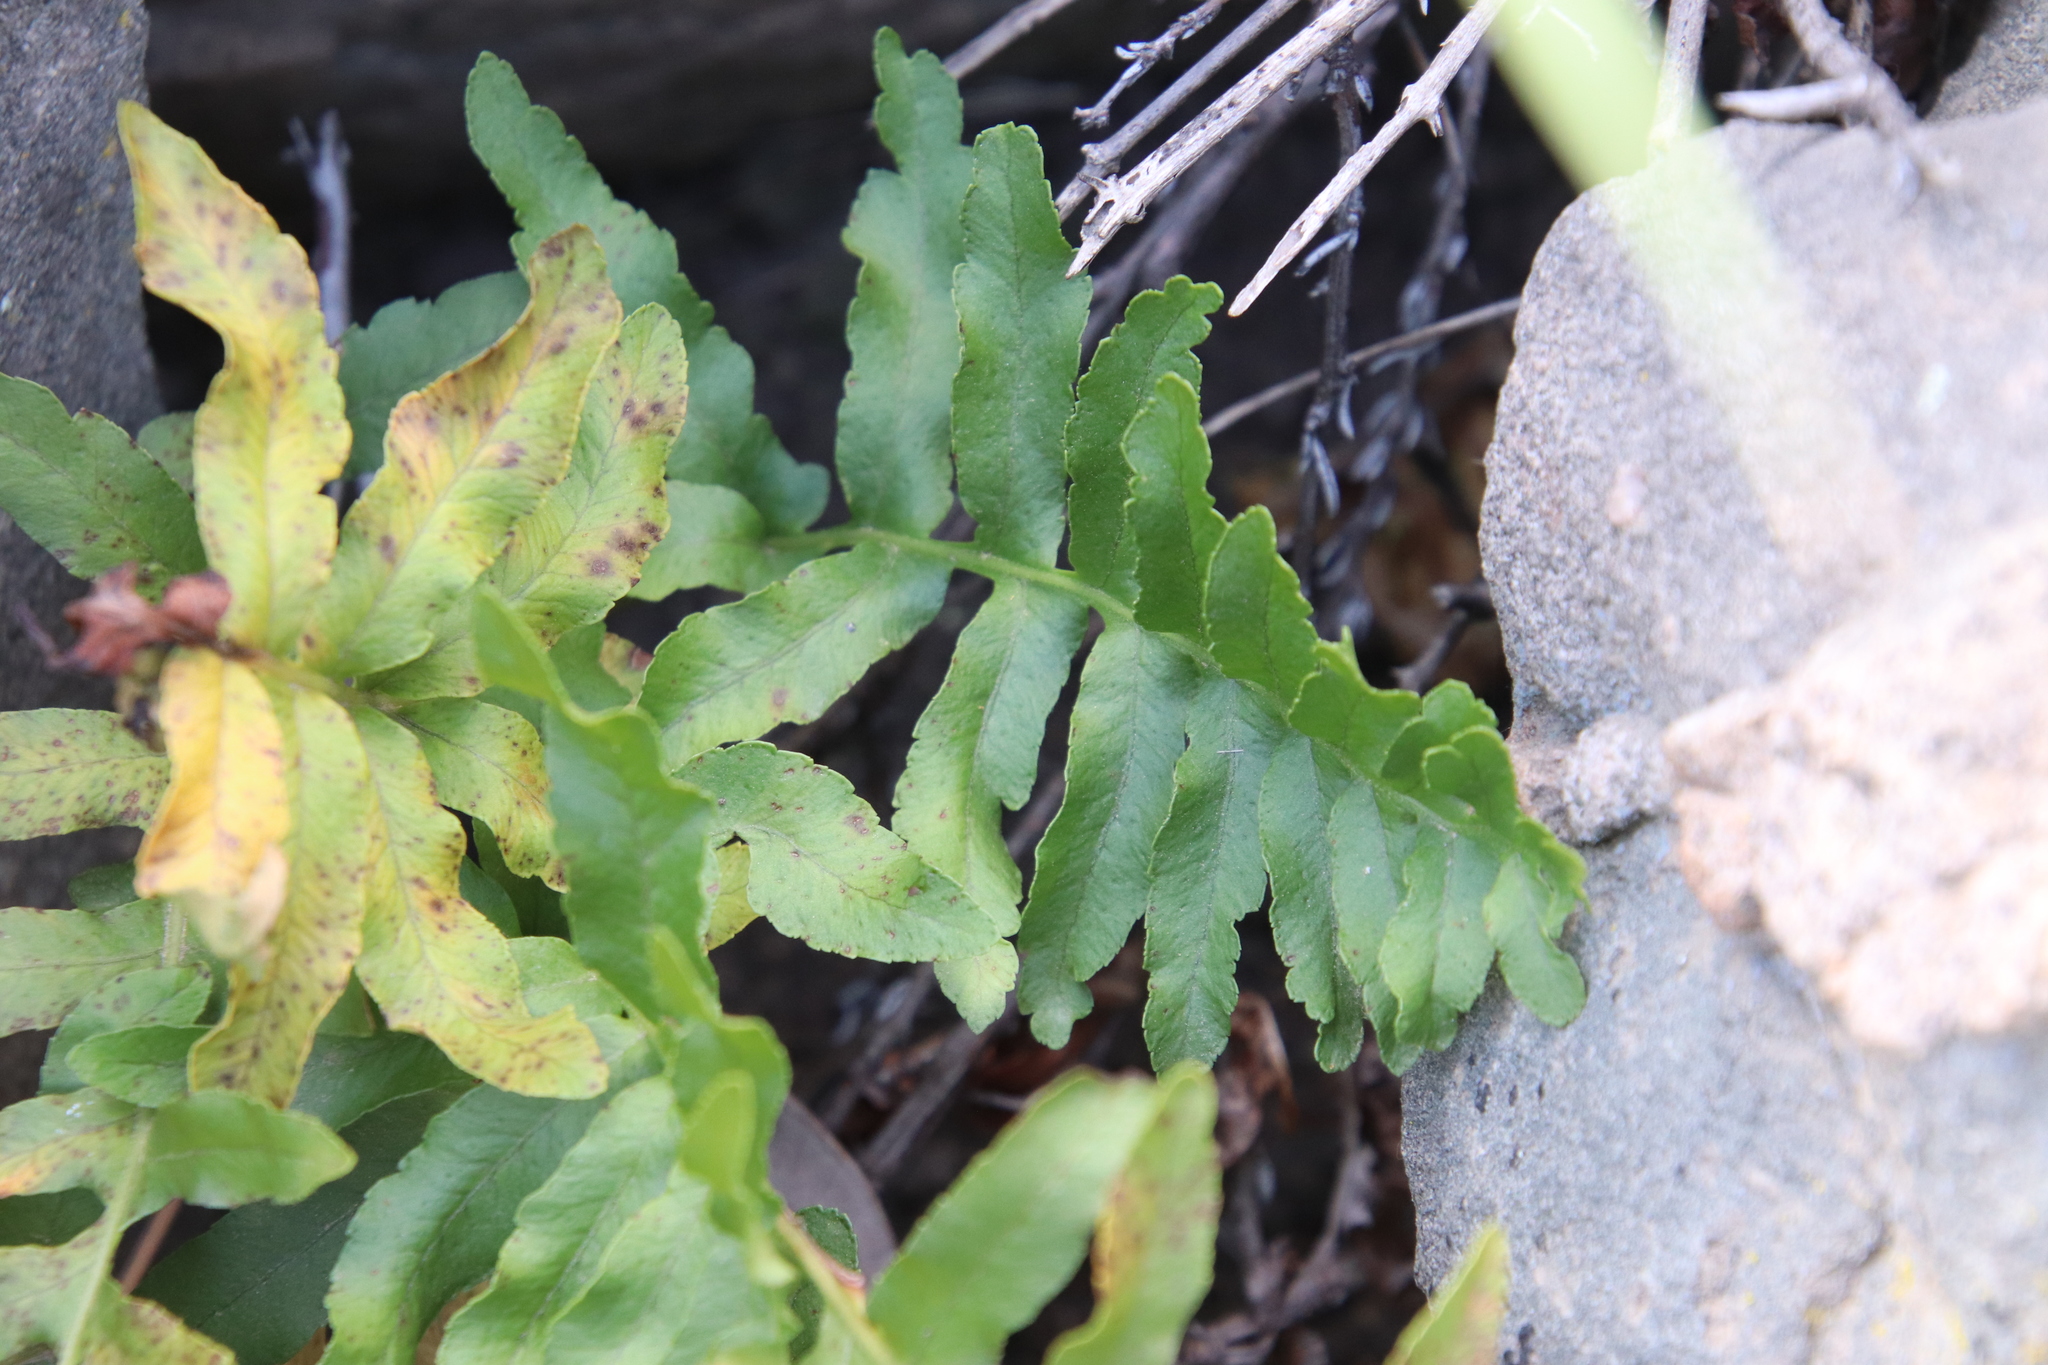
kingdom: Plantae
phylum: Tracheophyta
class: Polypodiopsida
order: Polypodiales
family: Polypodiaceae
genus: Polypodium
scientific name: Polypodium californicum
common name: California polypody
